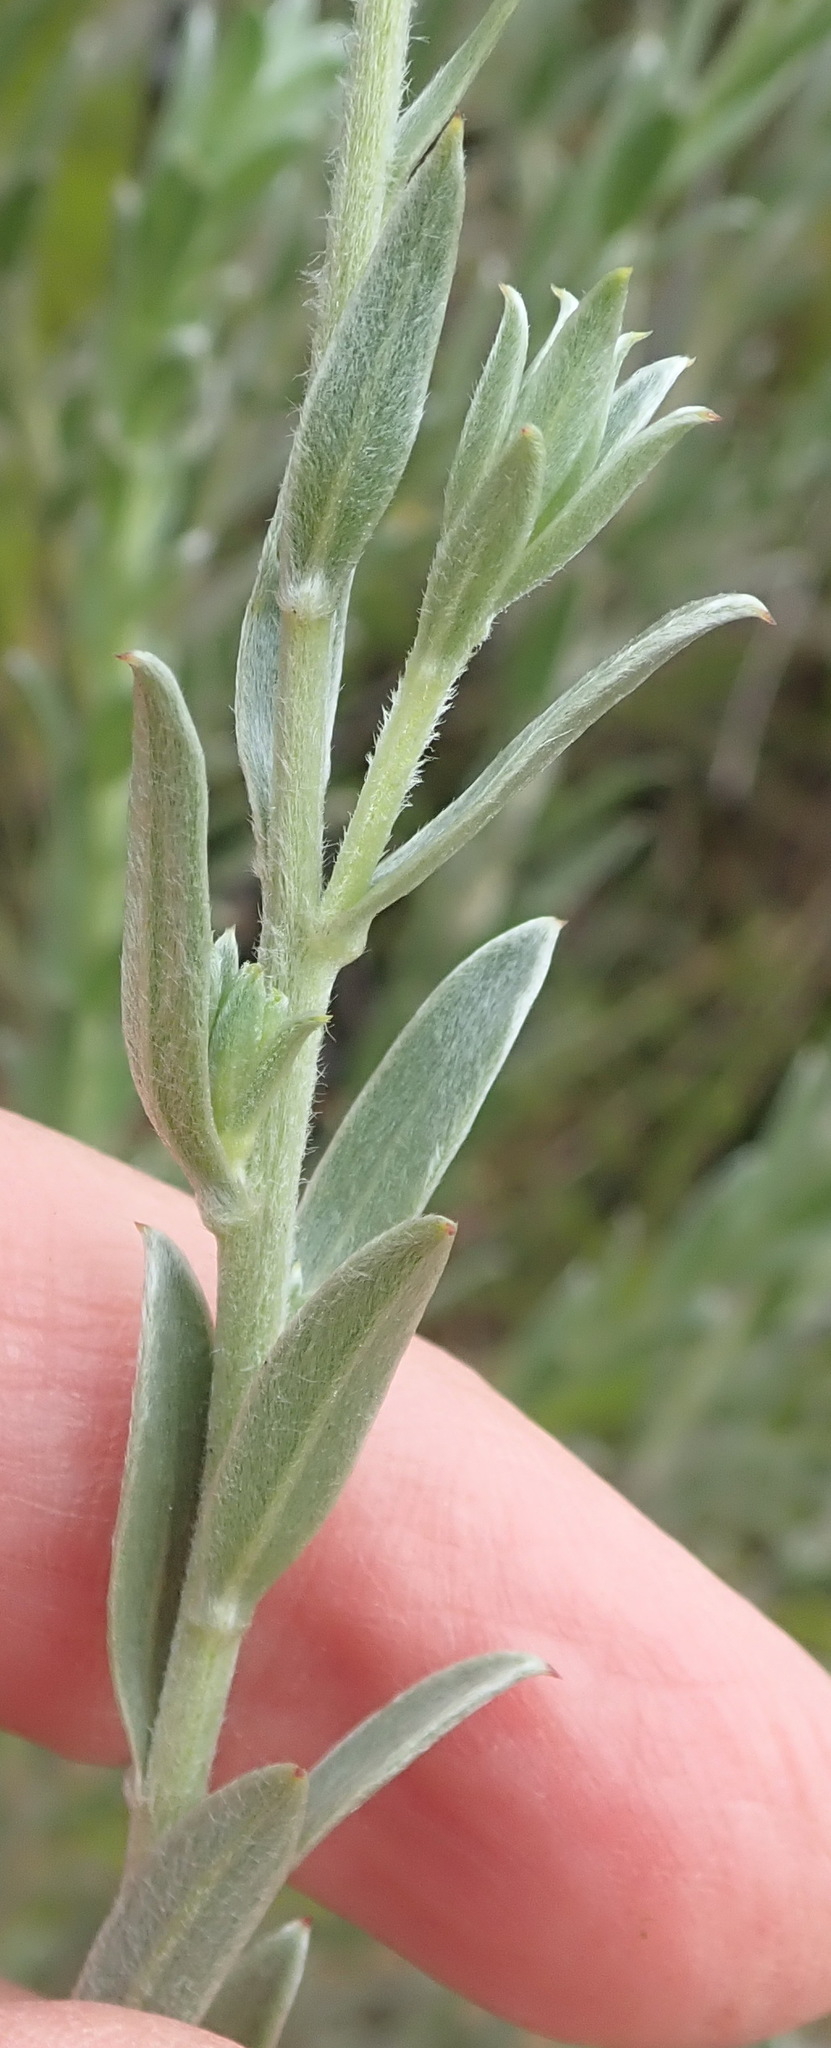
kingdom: Plantae
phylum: Tracheophyta
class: Magnoliopsida
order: Asterales
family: Asteraceae
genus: Schistostephium
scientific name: Schistostephium umbellatum
